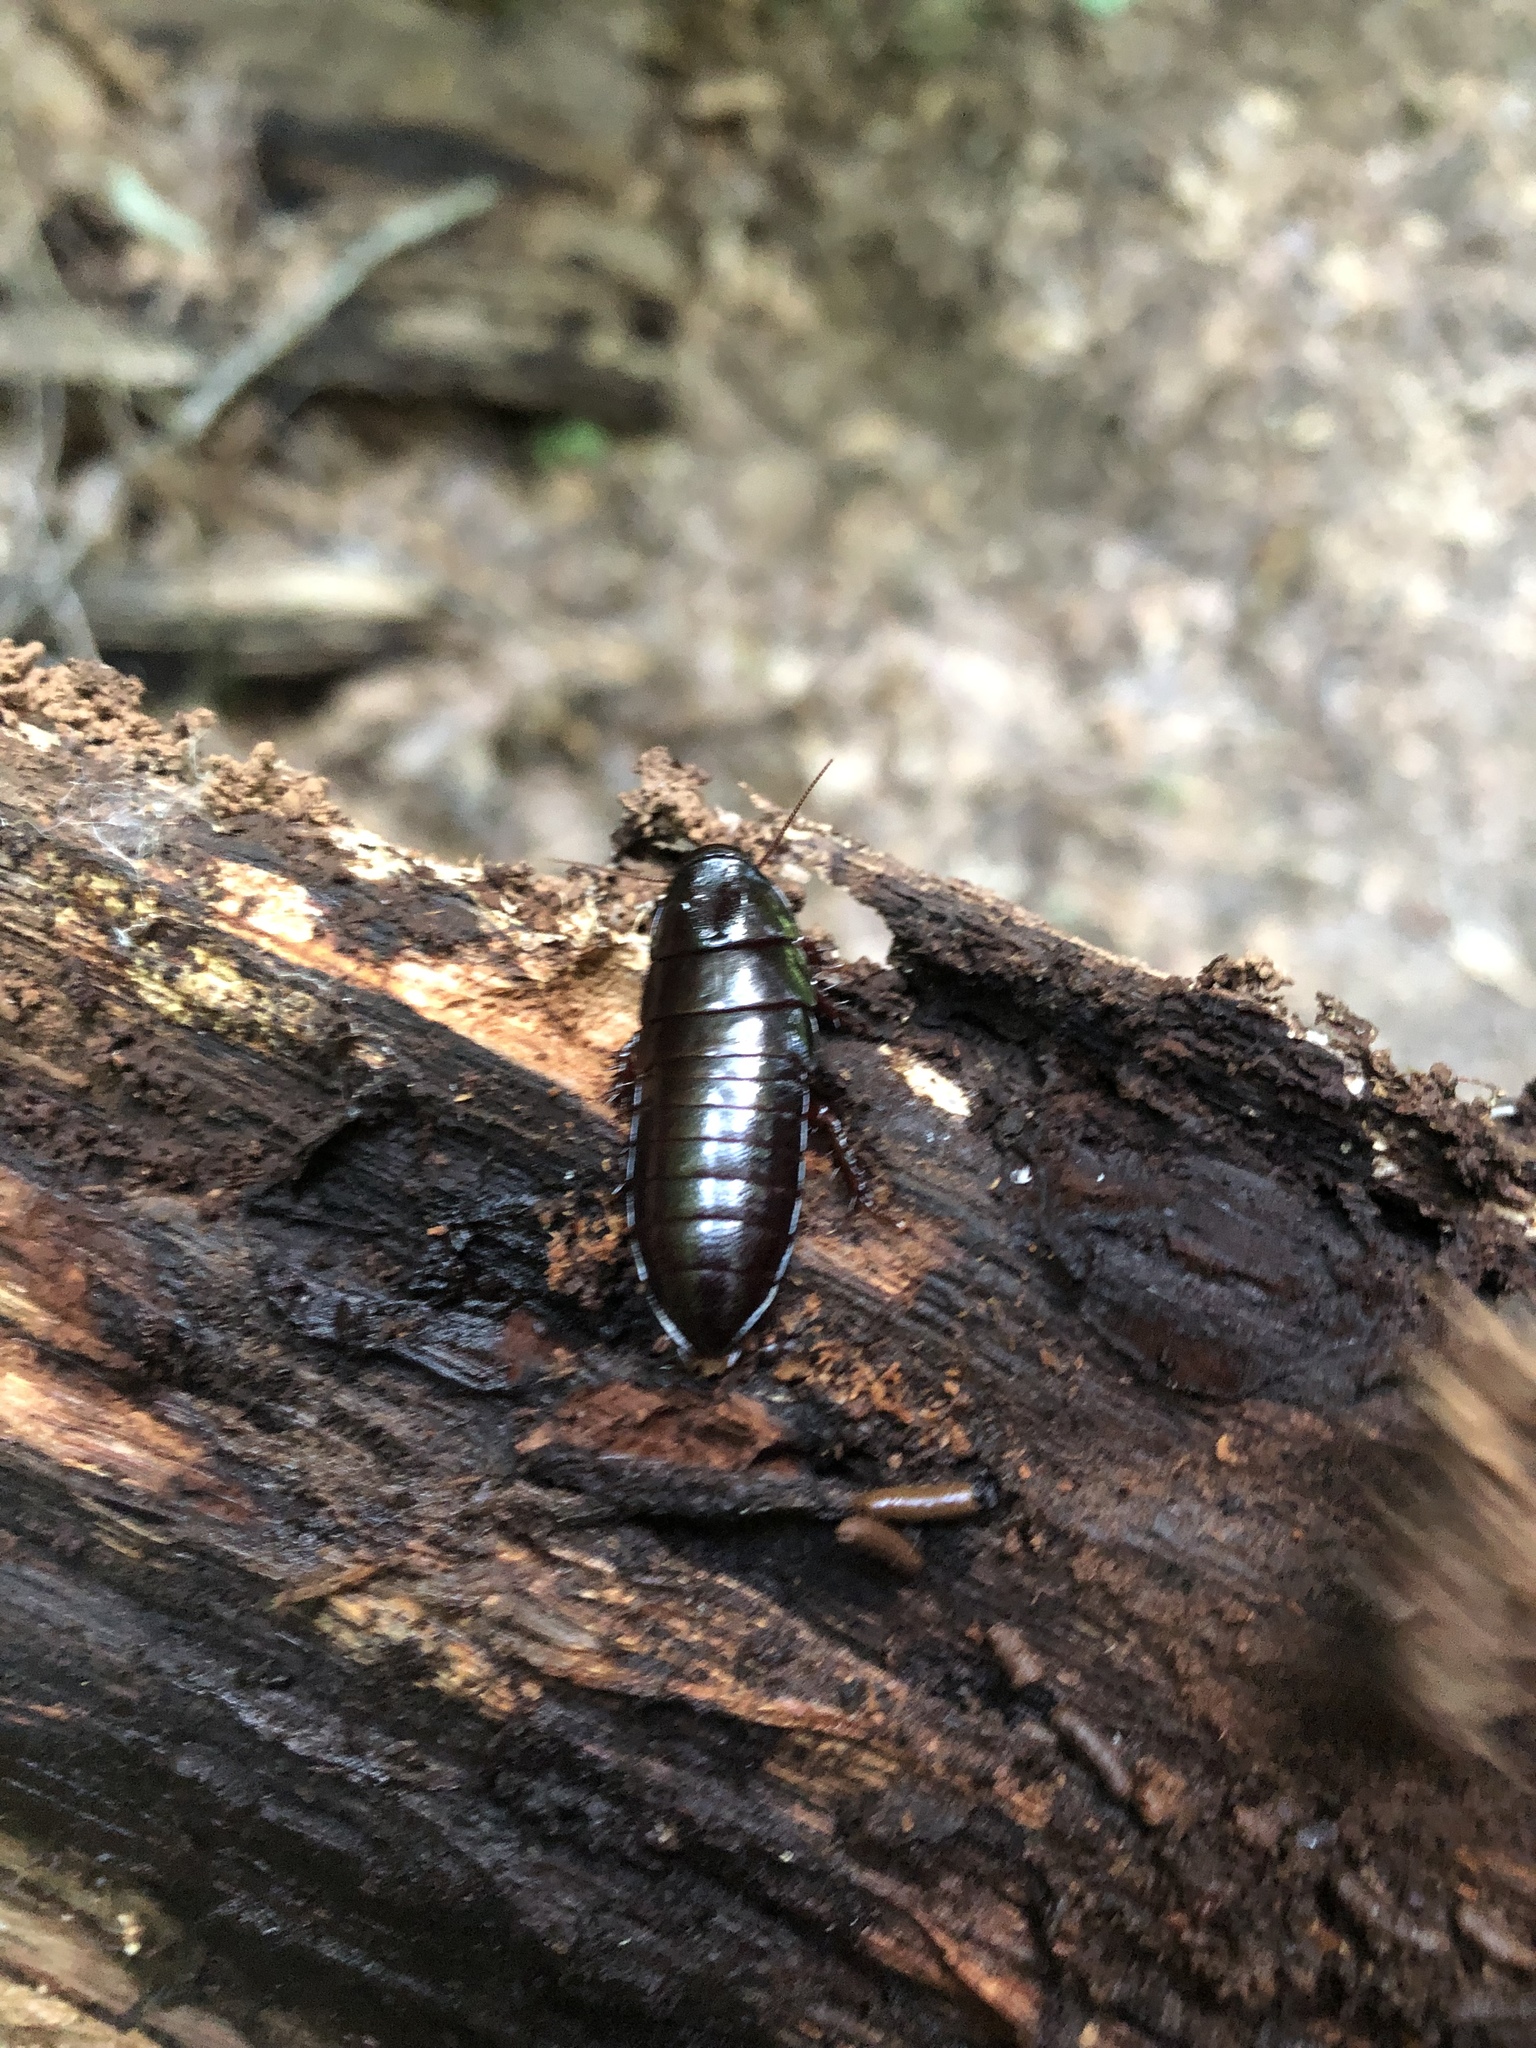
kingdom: Animalia
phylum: Arthropoda
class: Insecta
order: Blattodea
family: Cryptocercidae
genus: Cryptocercus
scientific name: Cryptocercus wrighti
